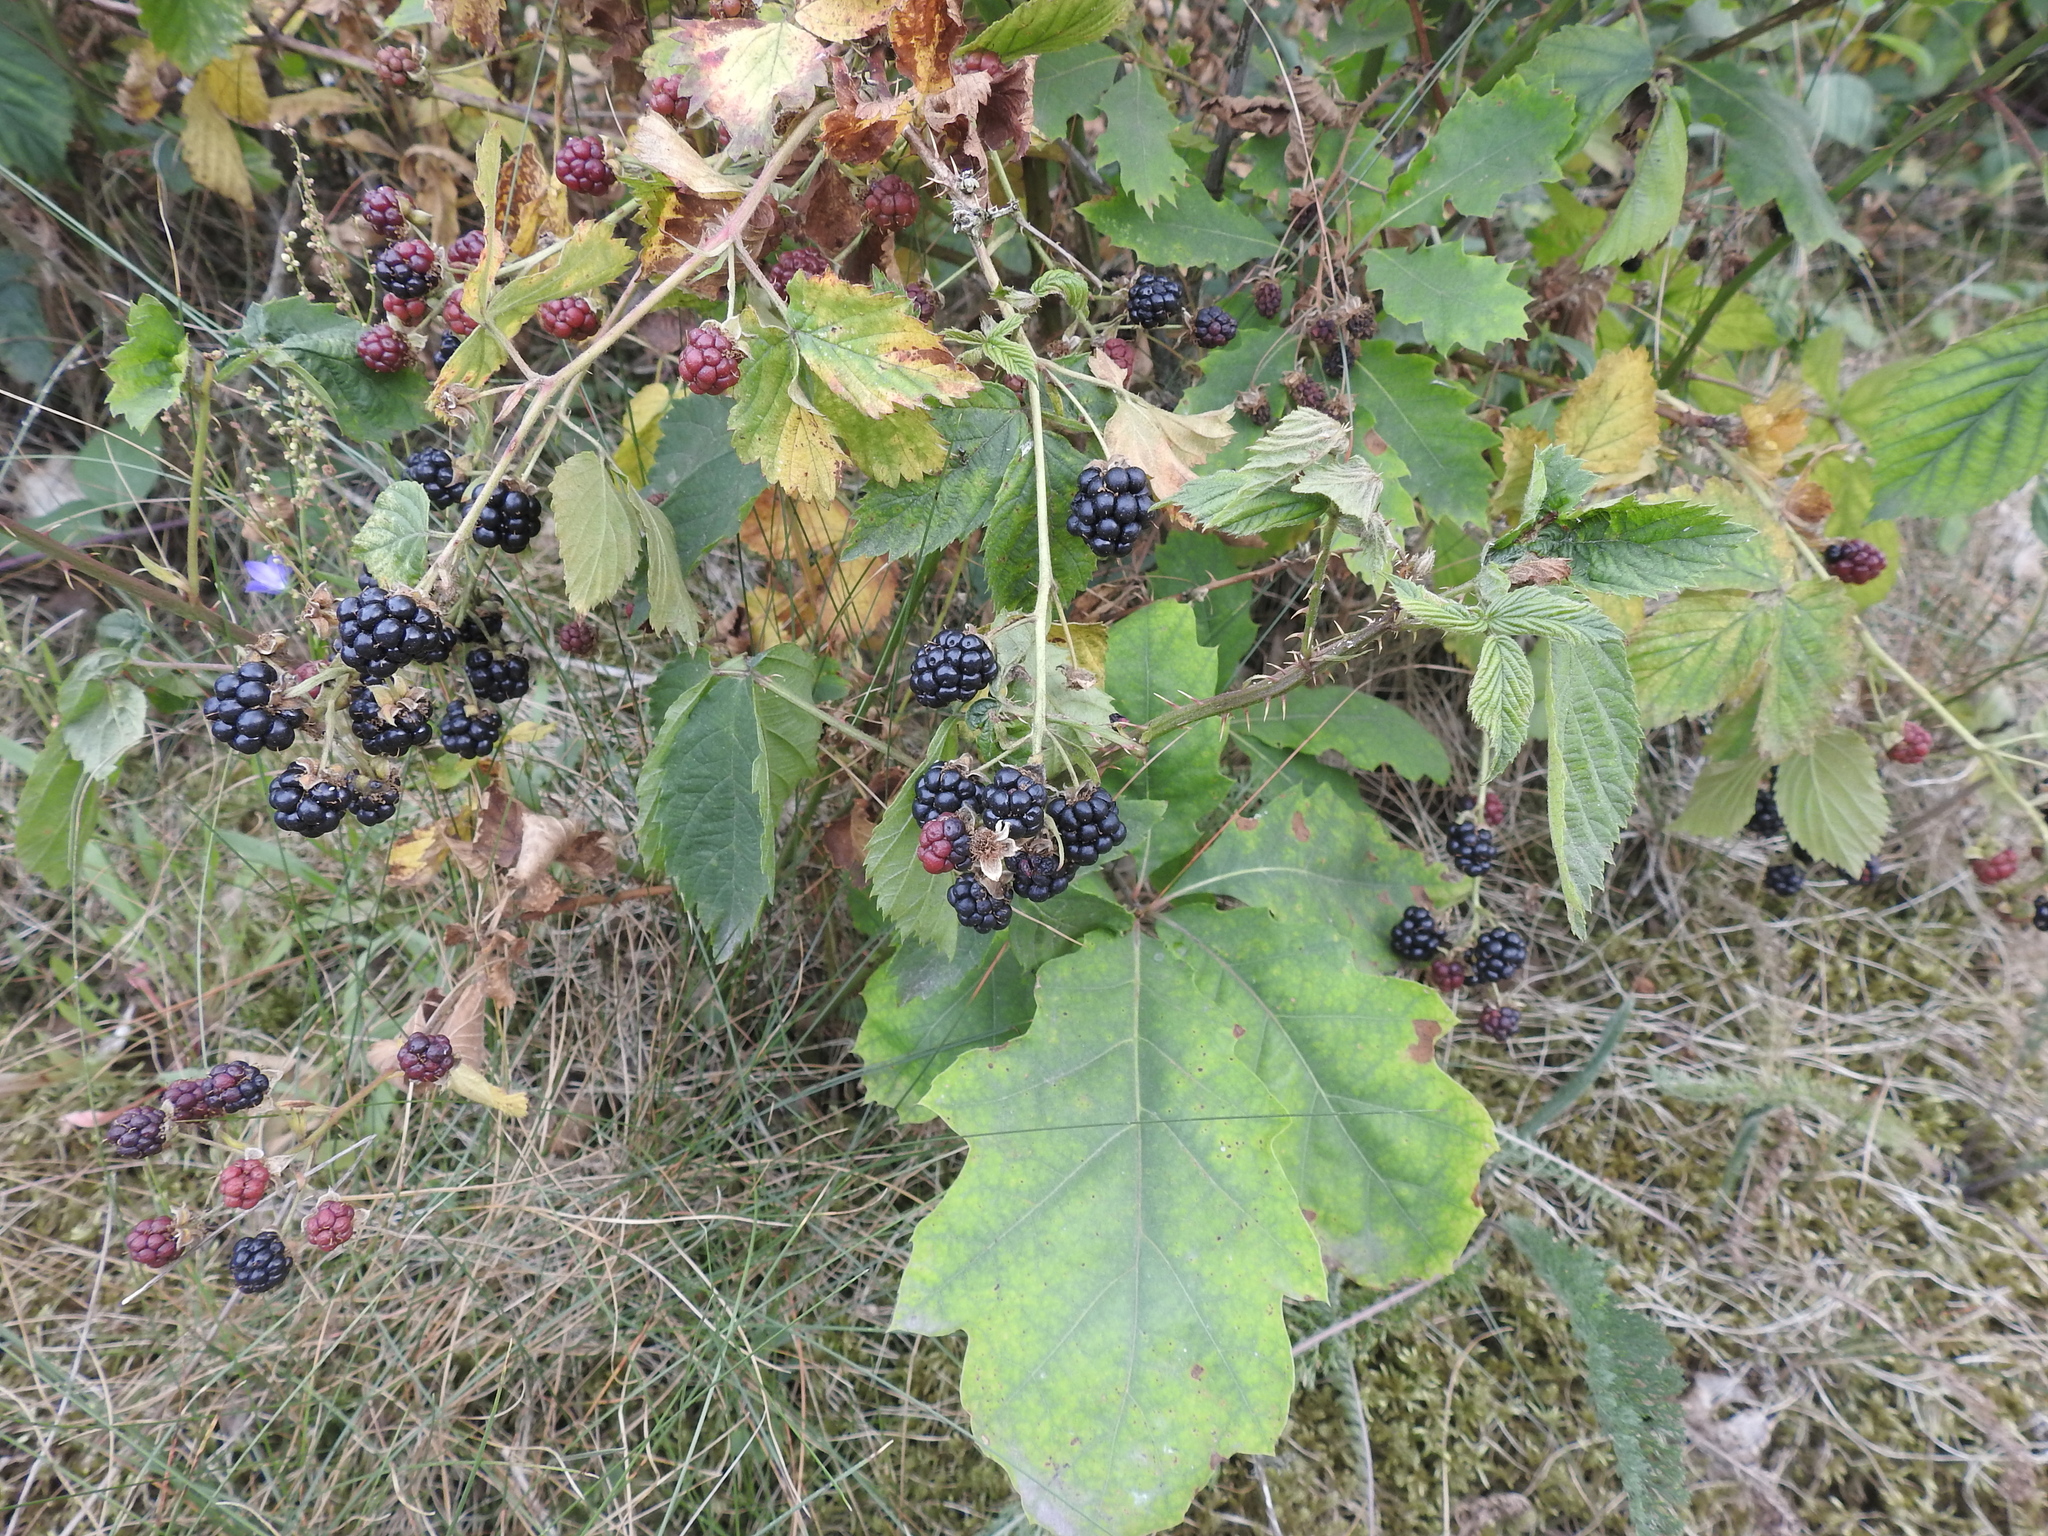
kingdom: Plantae
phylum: Tracheophyta
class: Magnoliopsida
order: Rosales
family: Rosaceae
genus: Rubus
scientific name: Rubus caesius
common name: Dewberry
